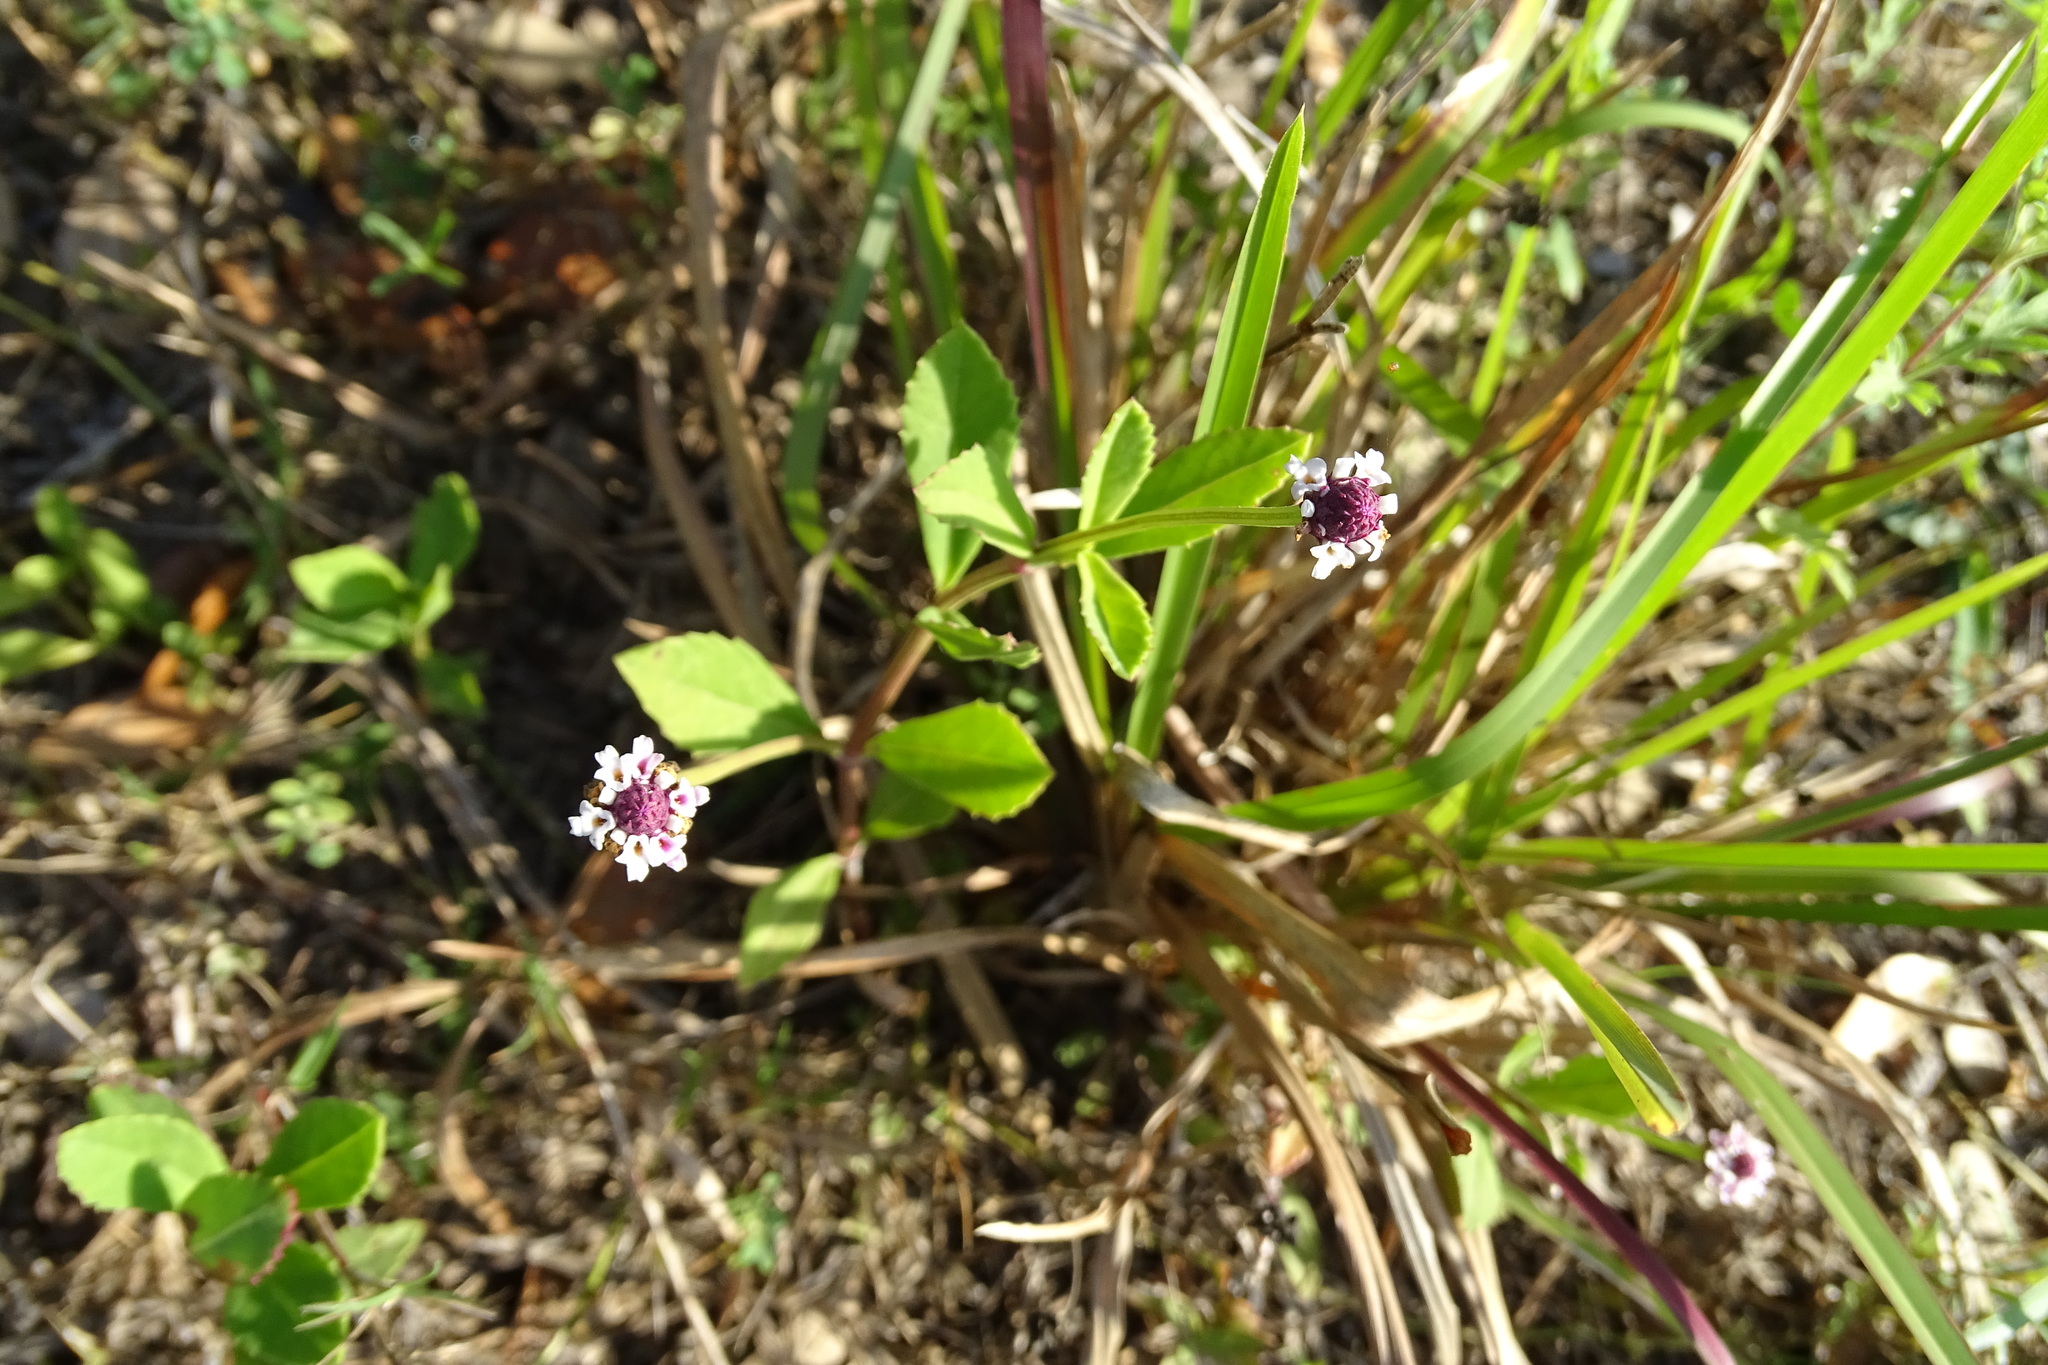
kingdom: Plantae
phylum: Tracheophyta
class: Magnoliopsida
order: Lamiales
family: Verbenaceae
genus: Phyla
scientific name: Phyla nodiflora
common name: Frogfruit
